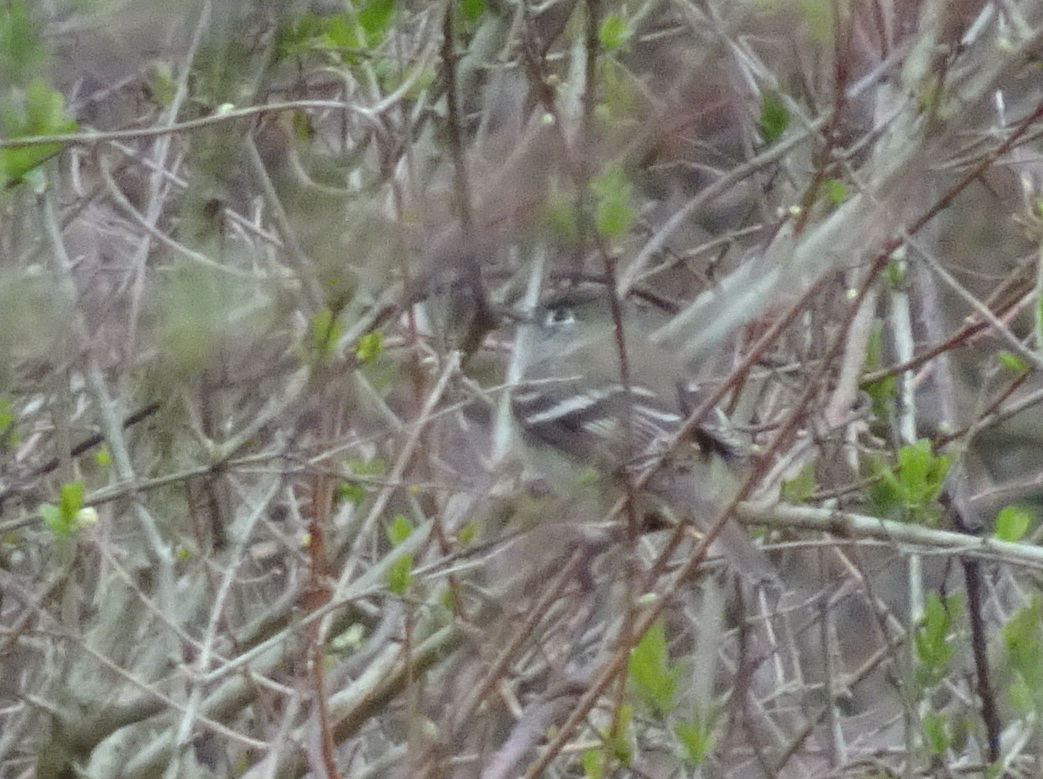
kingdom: Animalia
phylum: Chordata
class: Aves
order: Passeriformes
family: Tyrannidae
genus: Empidonax
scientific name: Empidonax minimus
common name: Least flycatcher
